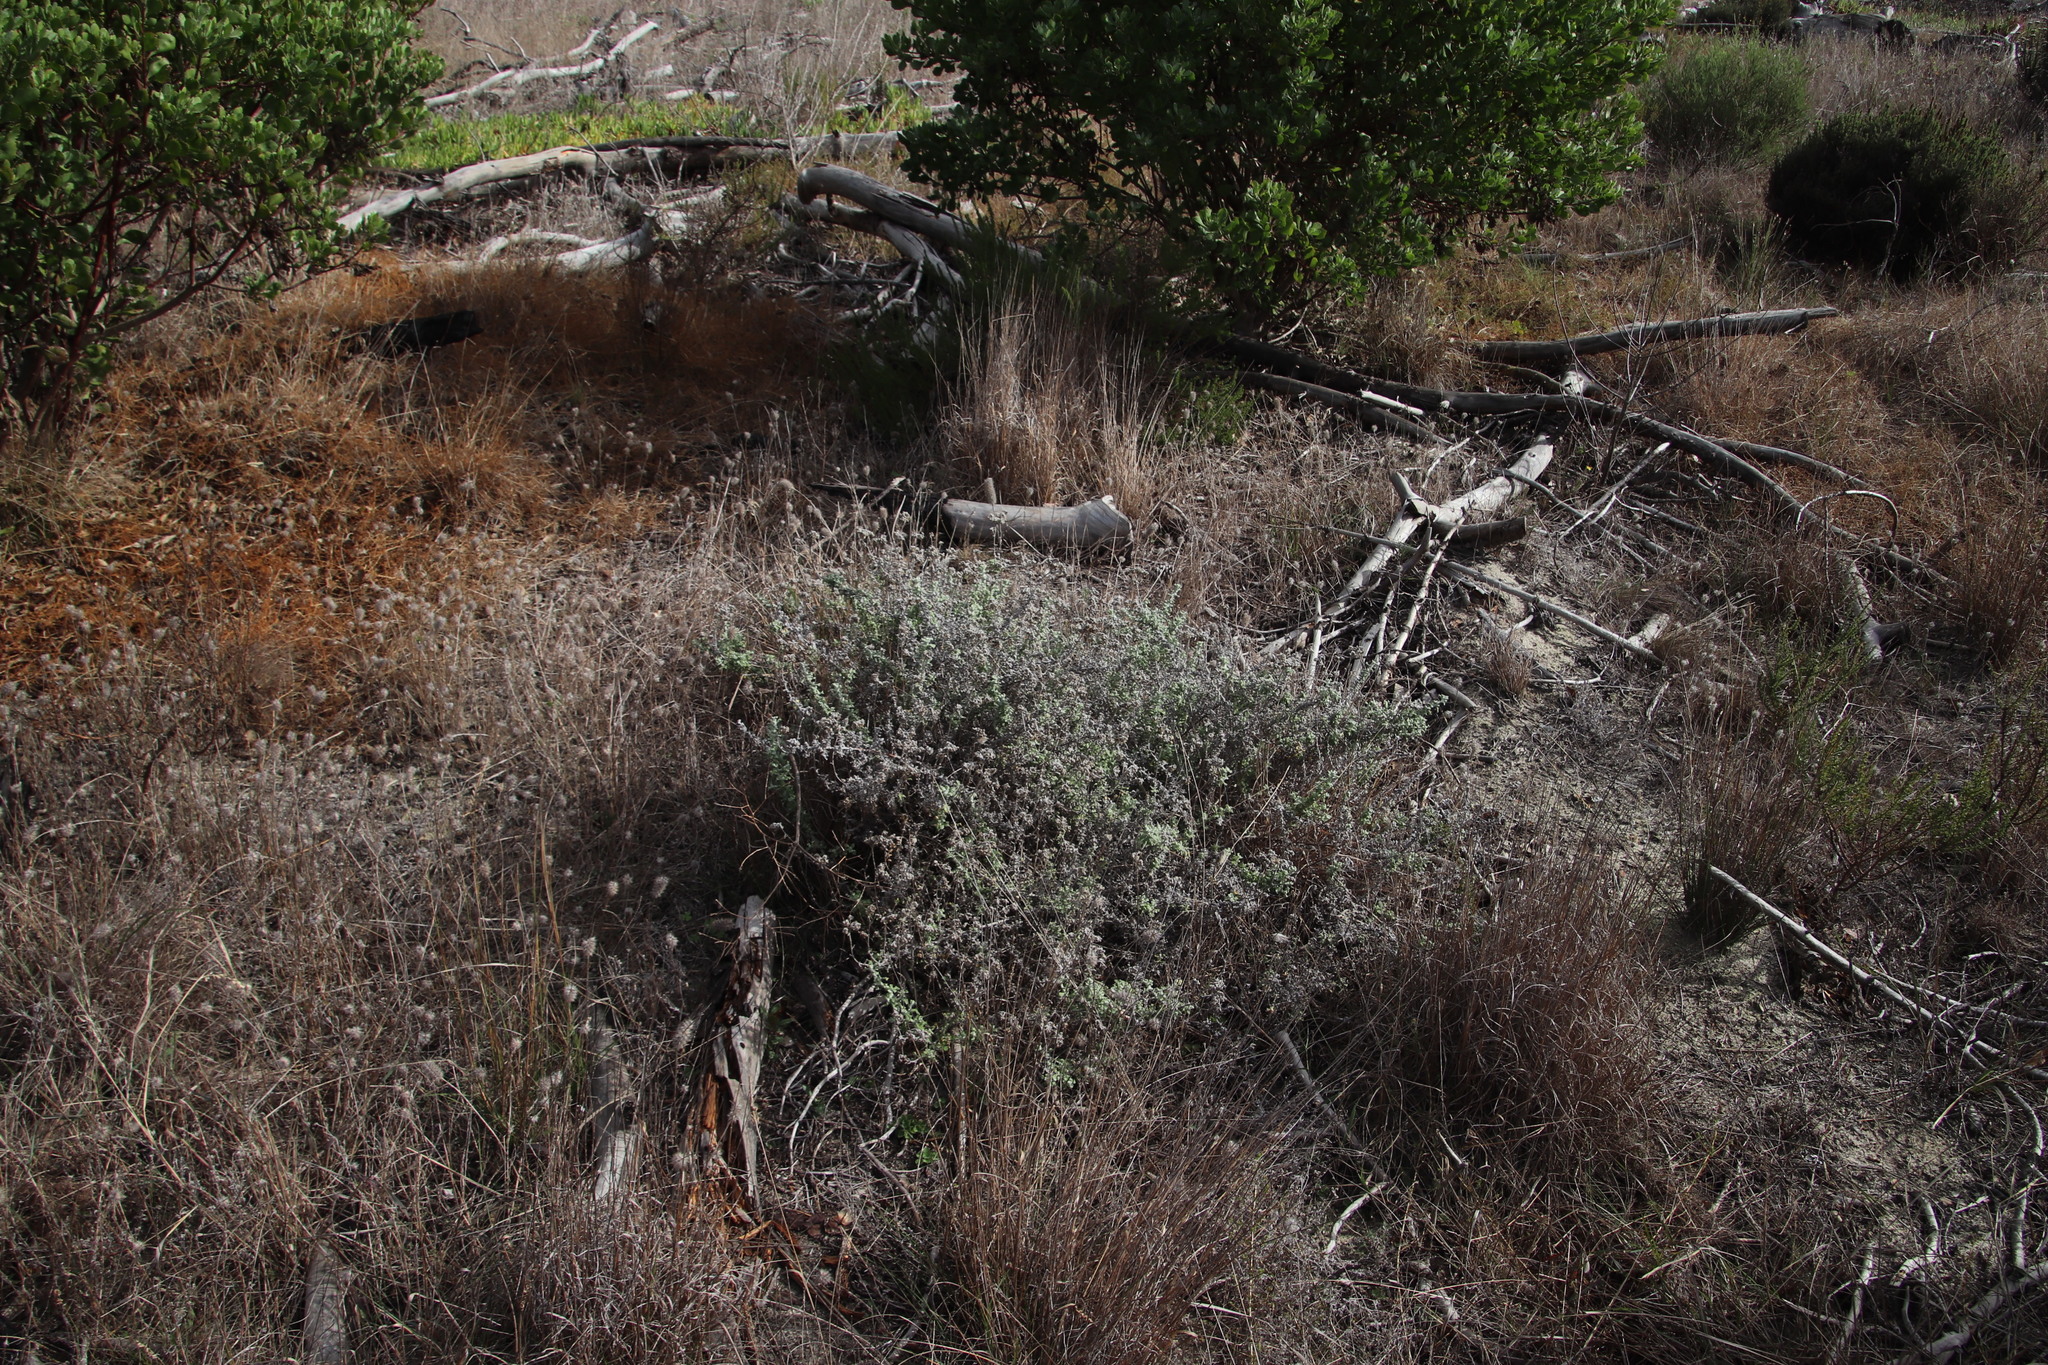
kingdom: Plantae
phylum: Tracheophyta
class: Magnoliopsida
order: Asterales
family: Asteraceae
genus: Seriphium
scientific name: Seriphium plumosum
